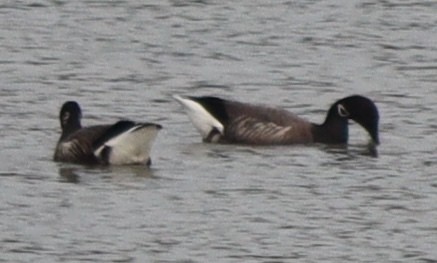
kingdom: Animalia
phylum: Chordata
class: Aves
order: Anseriformes
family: Anatidae
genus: Branta
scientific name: Branta bernicla
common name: Brant goose
